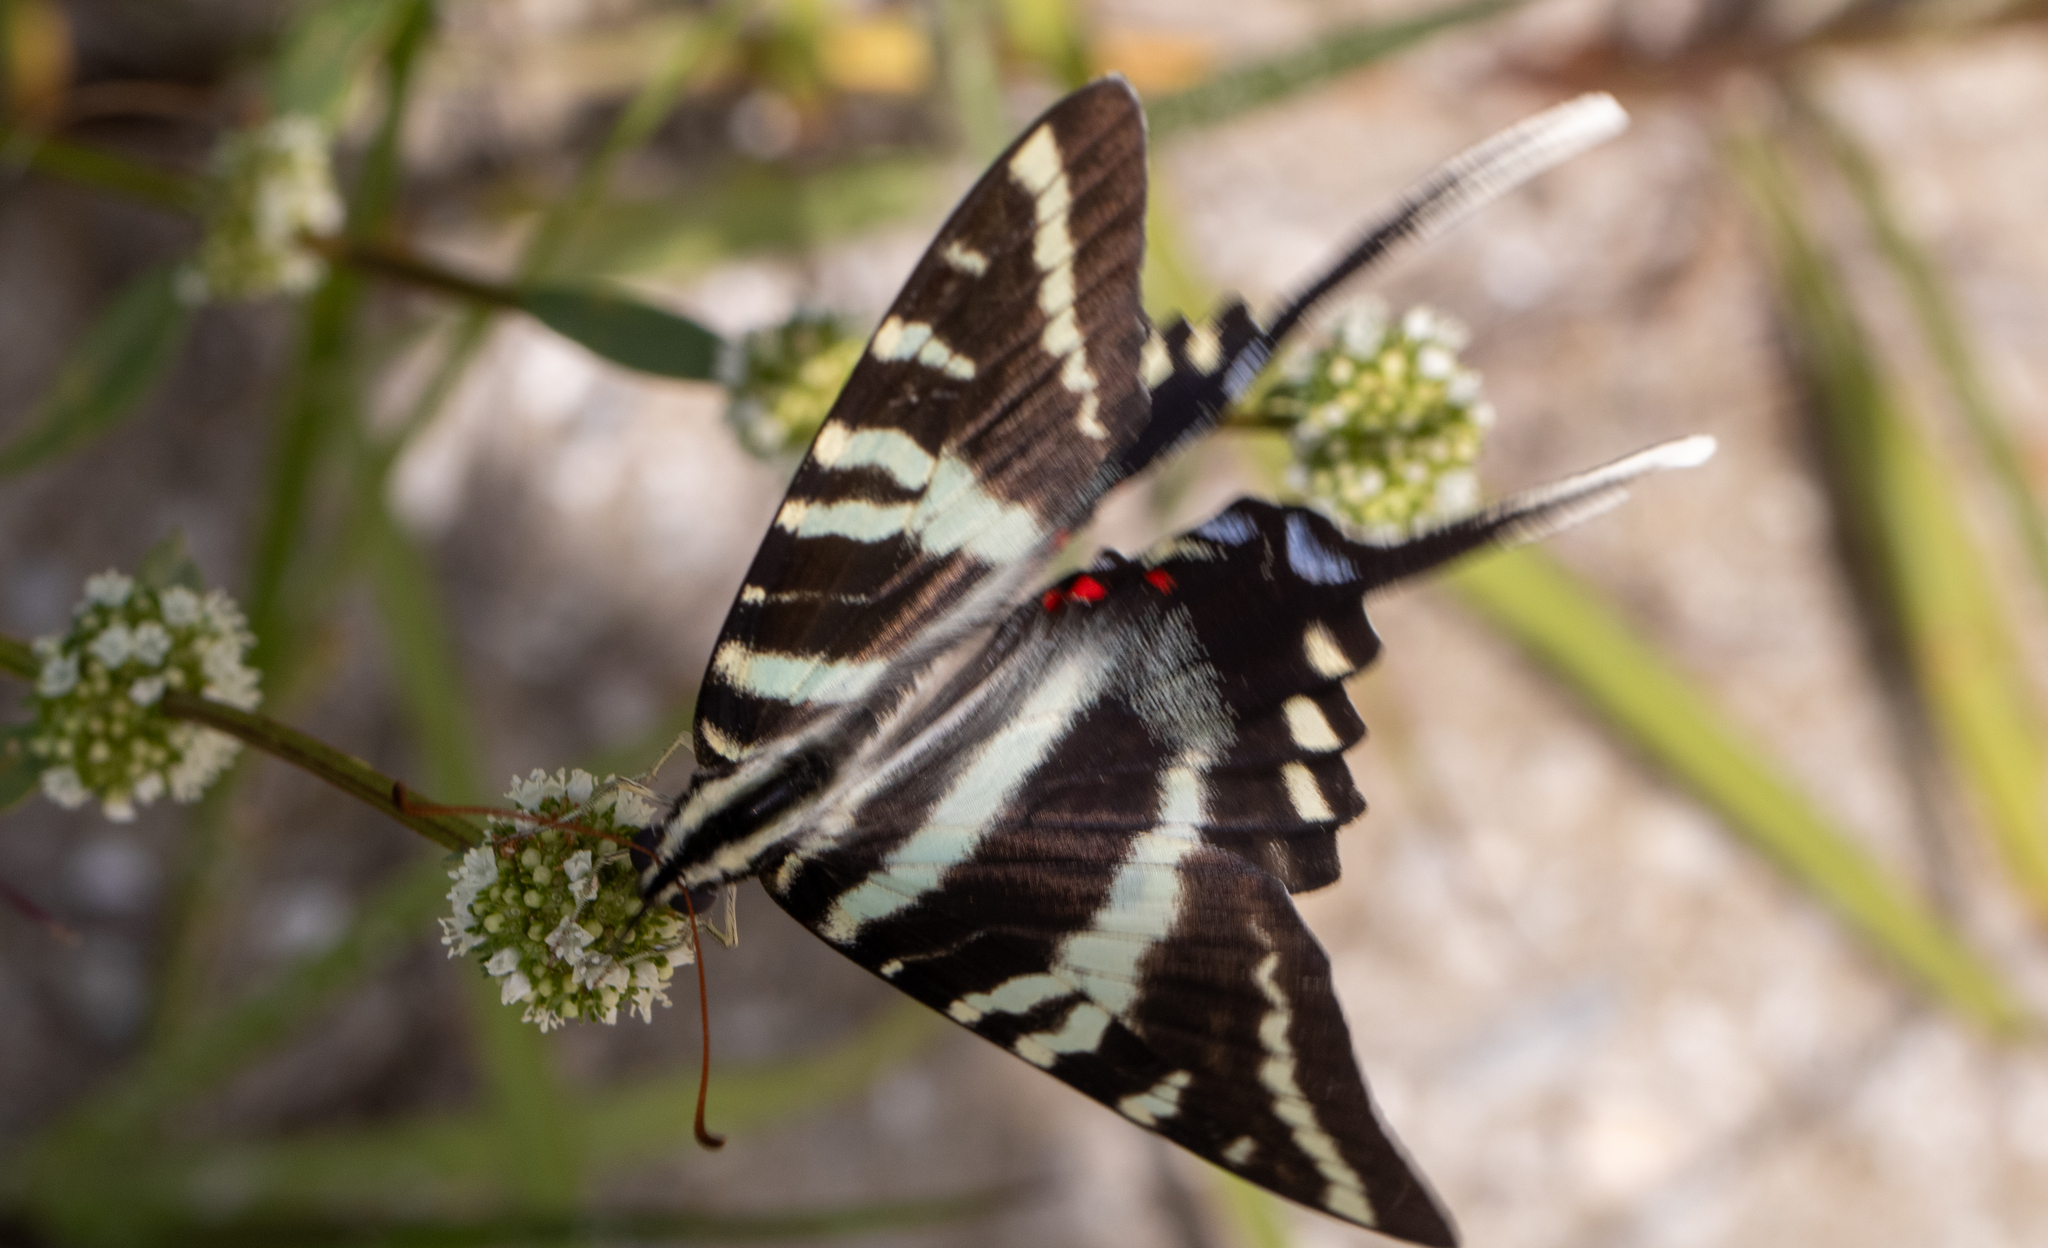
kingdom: Animalia
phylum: Arthropoda
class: Insecta
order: Lepidoptera
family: Papilionidae
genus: Protographium
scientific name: Protographium marcellus
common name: Zebra swallowtail
